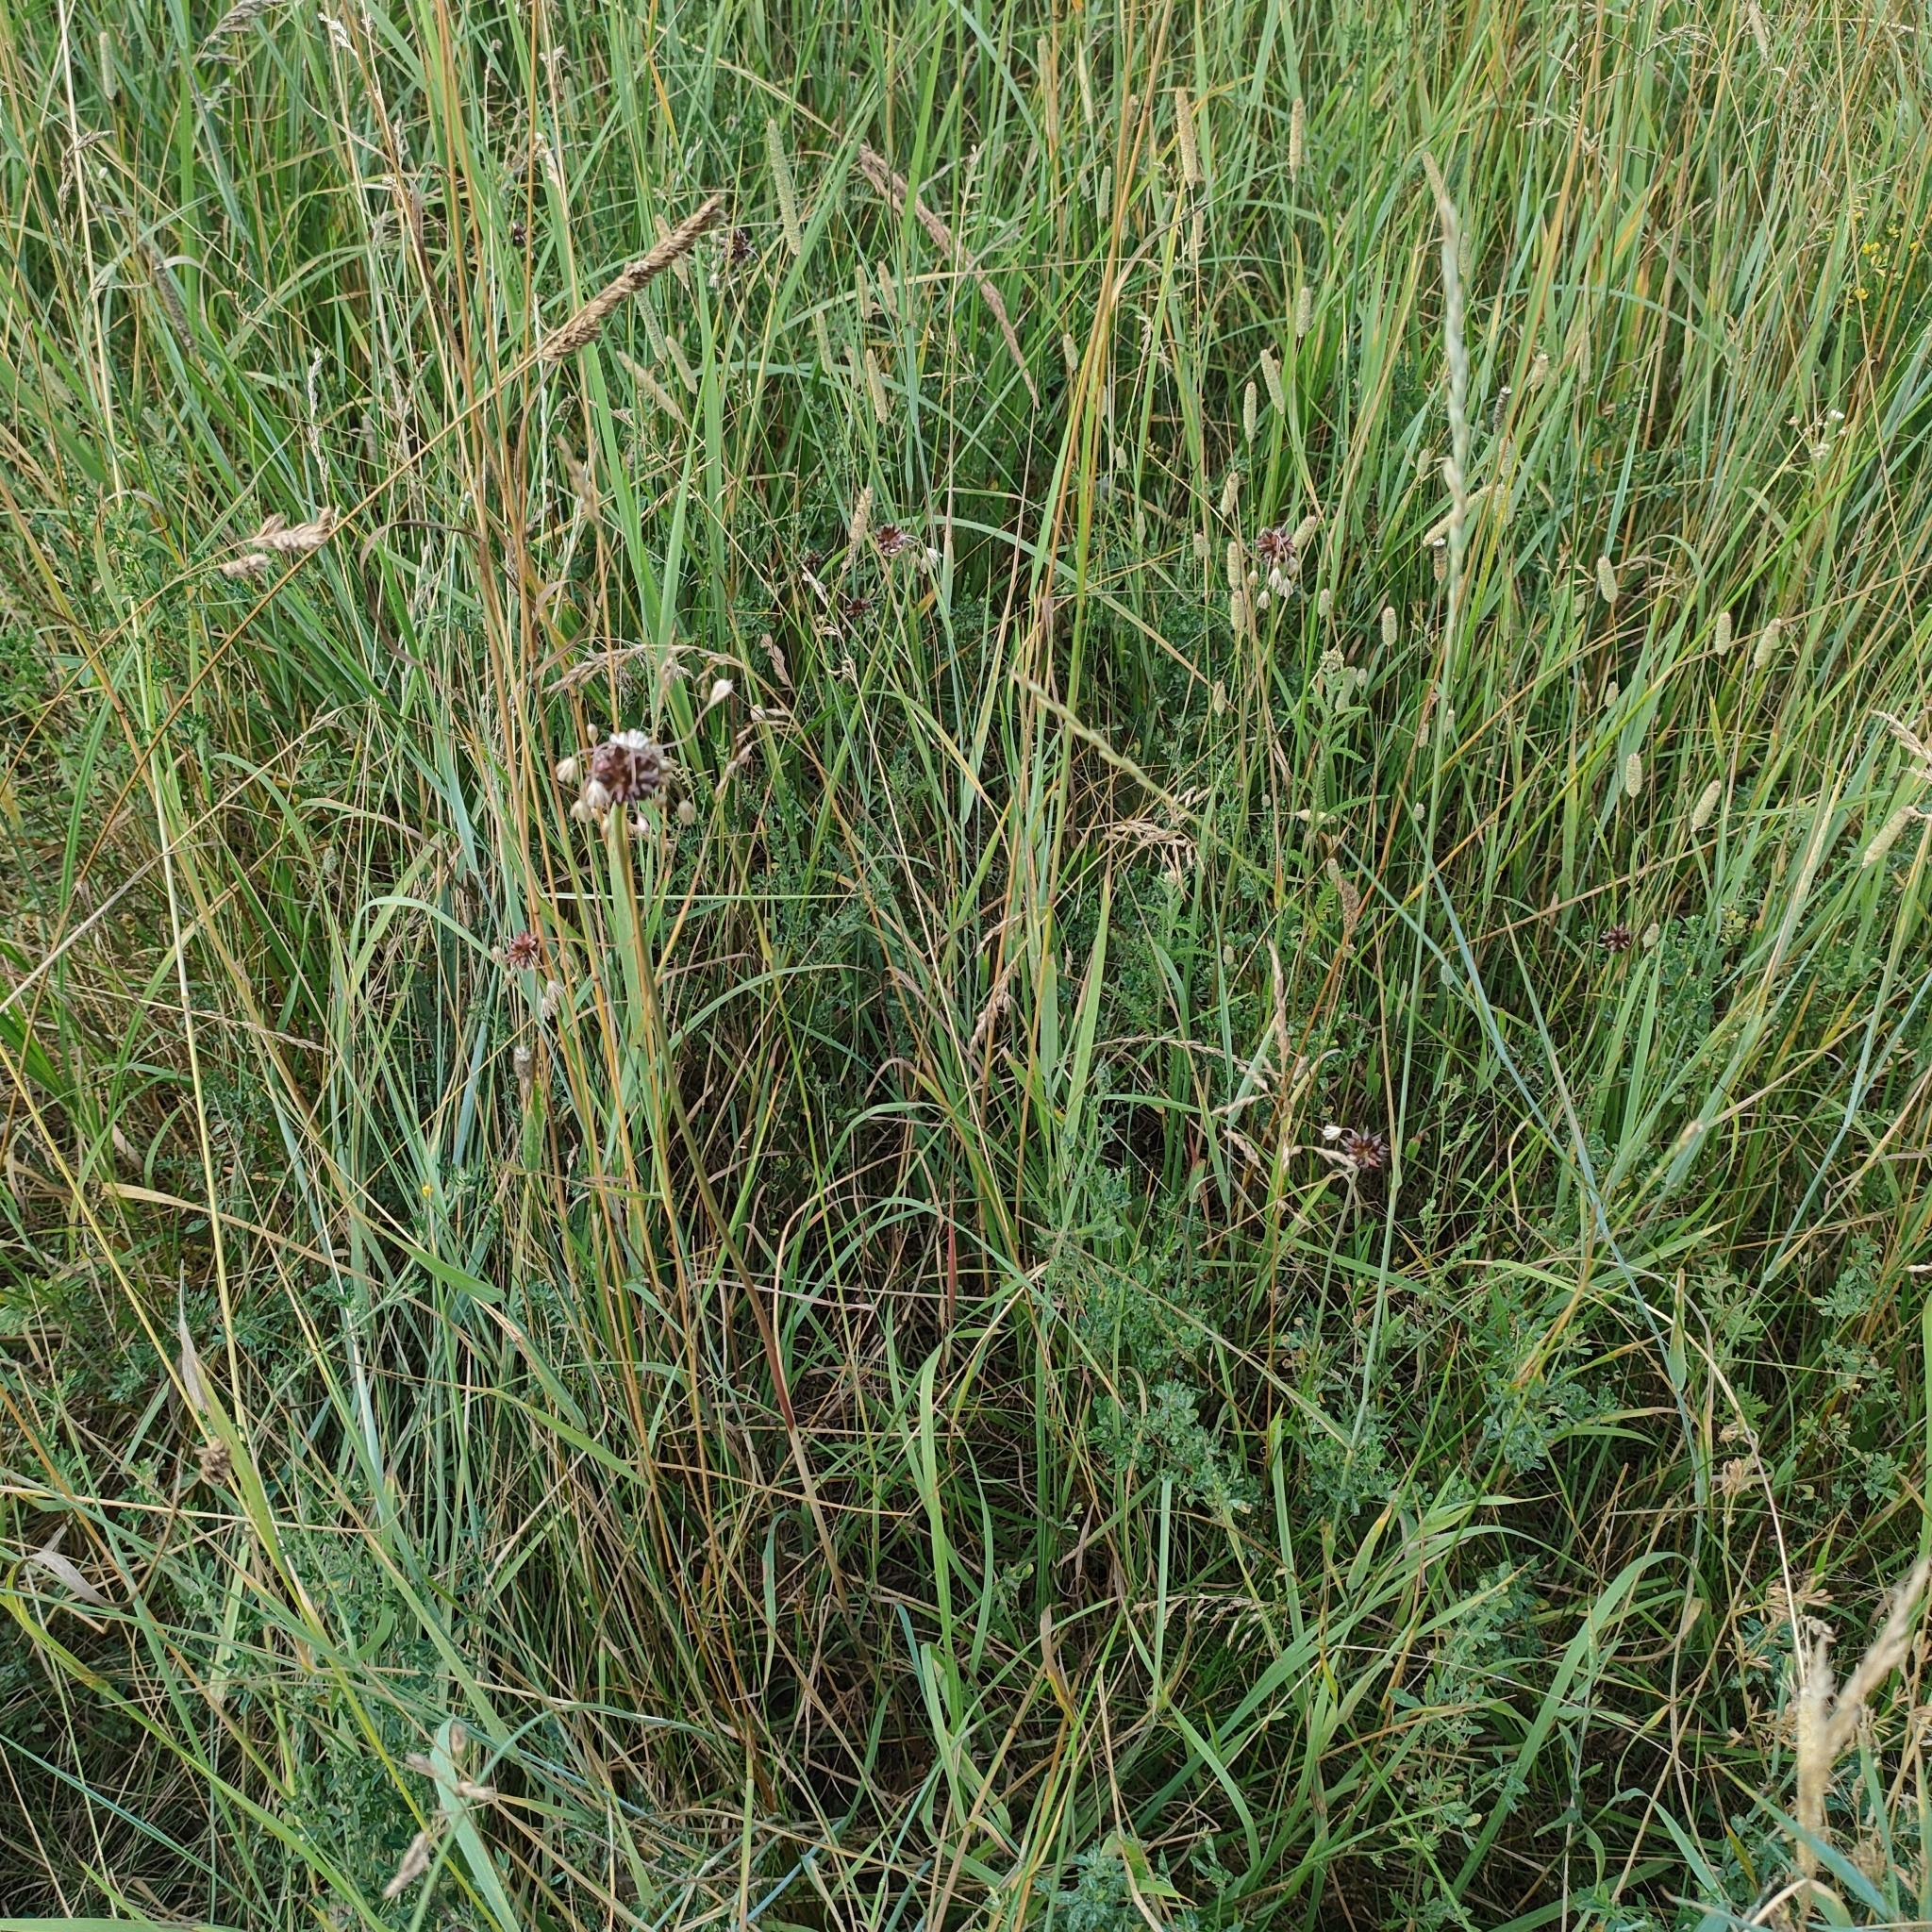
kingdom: Plantae
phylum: Tracheophyta
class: Liliopsida
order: Asparagales
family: Amaryllidaceae
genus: Allium
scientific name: Allium oleraceum
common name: Field garlic
